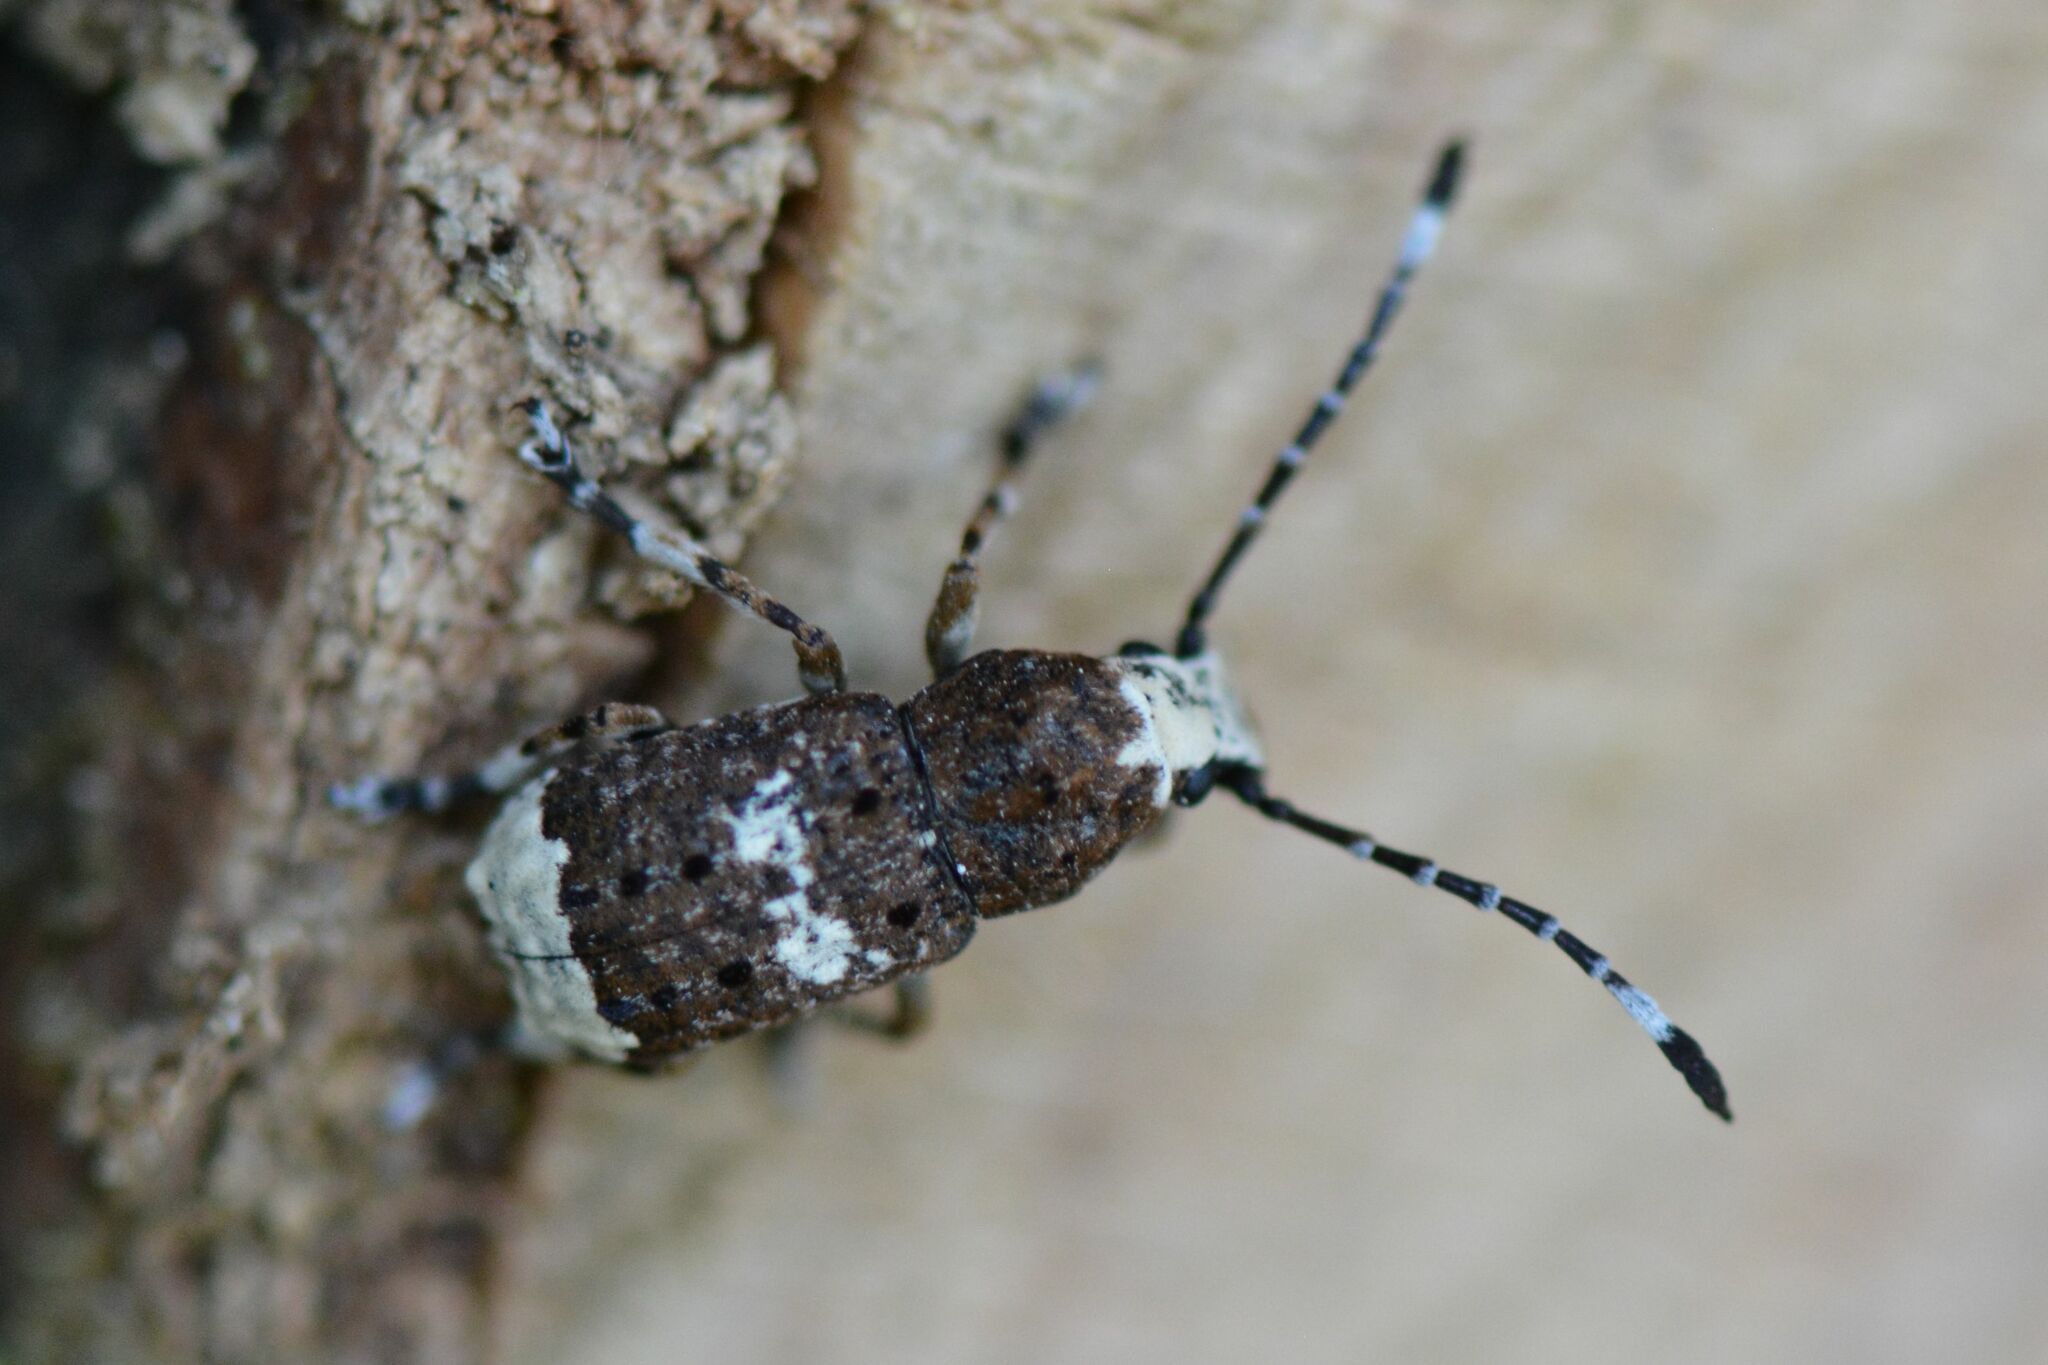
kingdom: Animalia
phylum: Arthropoda
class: Insecta
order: Coleoptera
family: Anthribidae
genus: Platystomos
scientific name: Platystomos albinus
